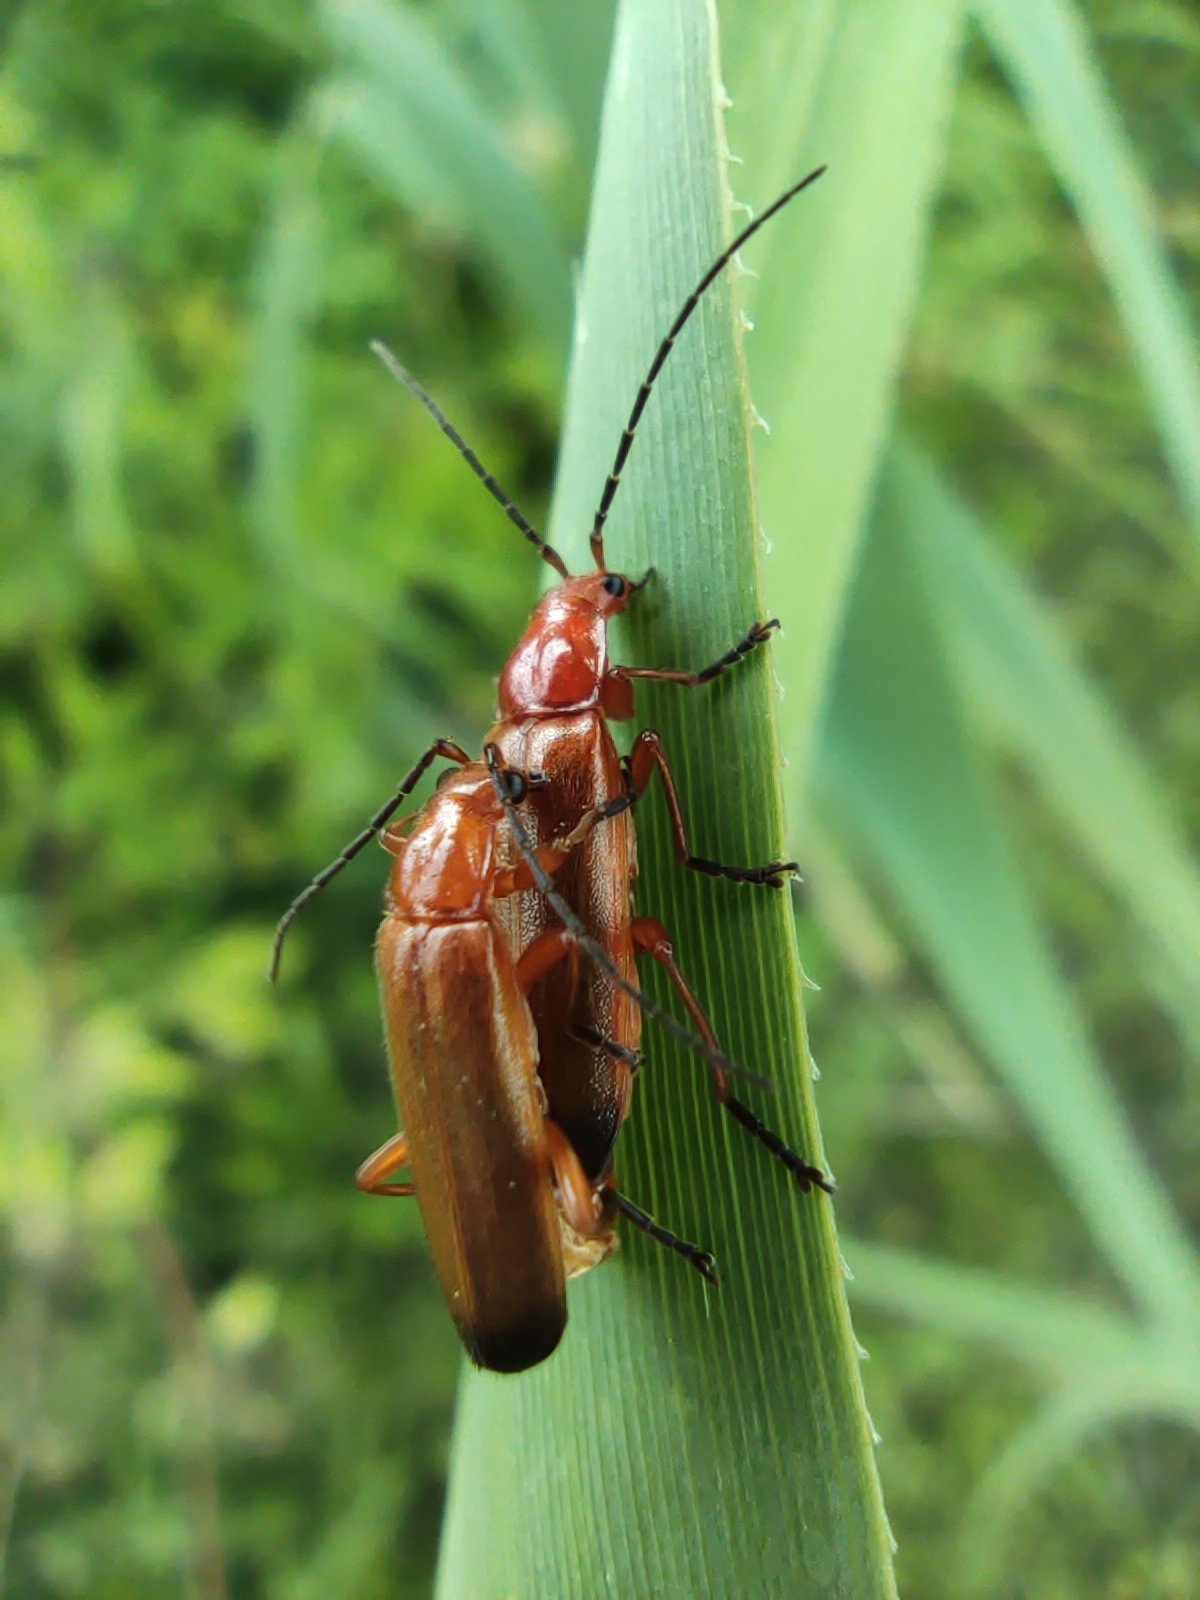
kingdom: Animalia
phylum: Arthropoda
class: Insecta
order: Coleoptera
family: Cantharidae
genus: Rhagonycha
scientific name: Rhagonycha fulva
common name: Common red soldier beetle
